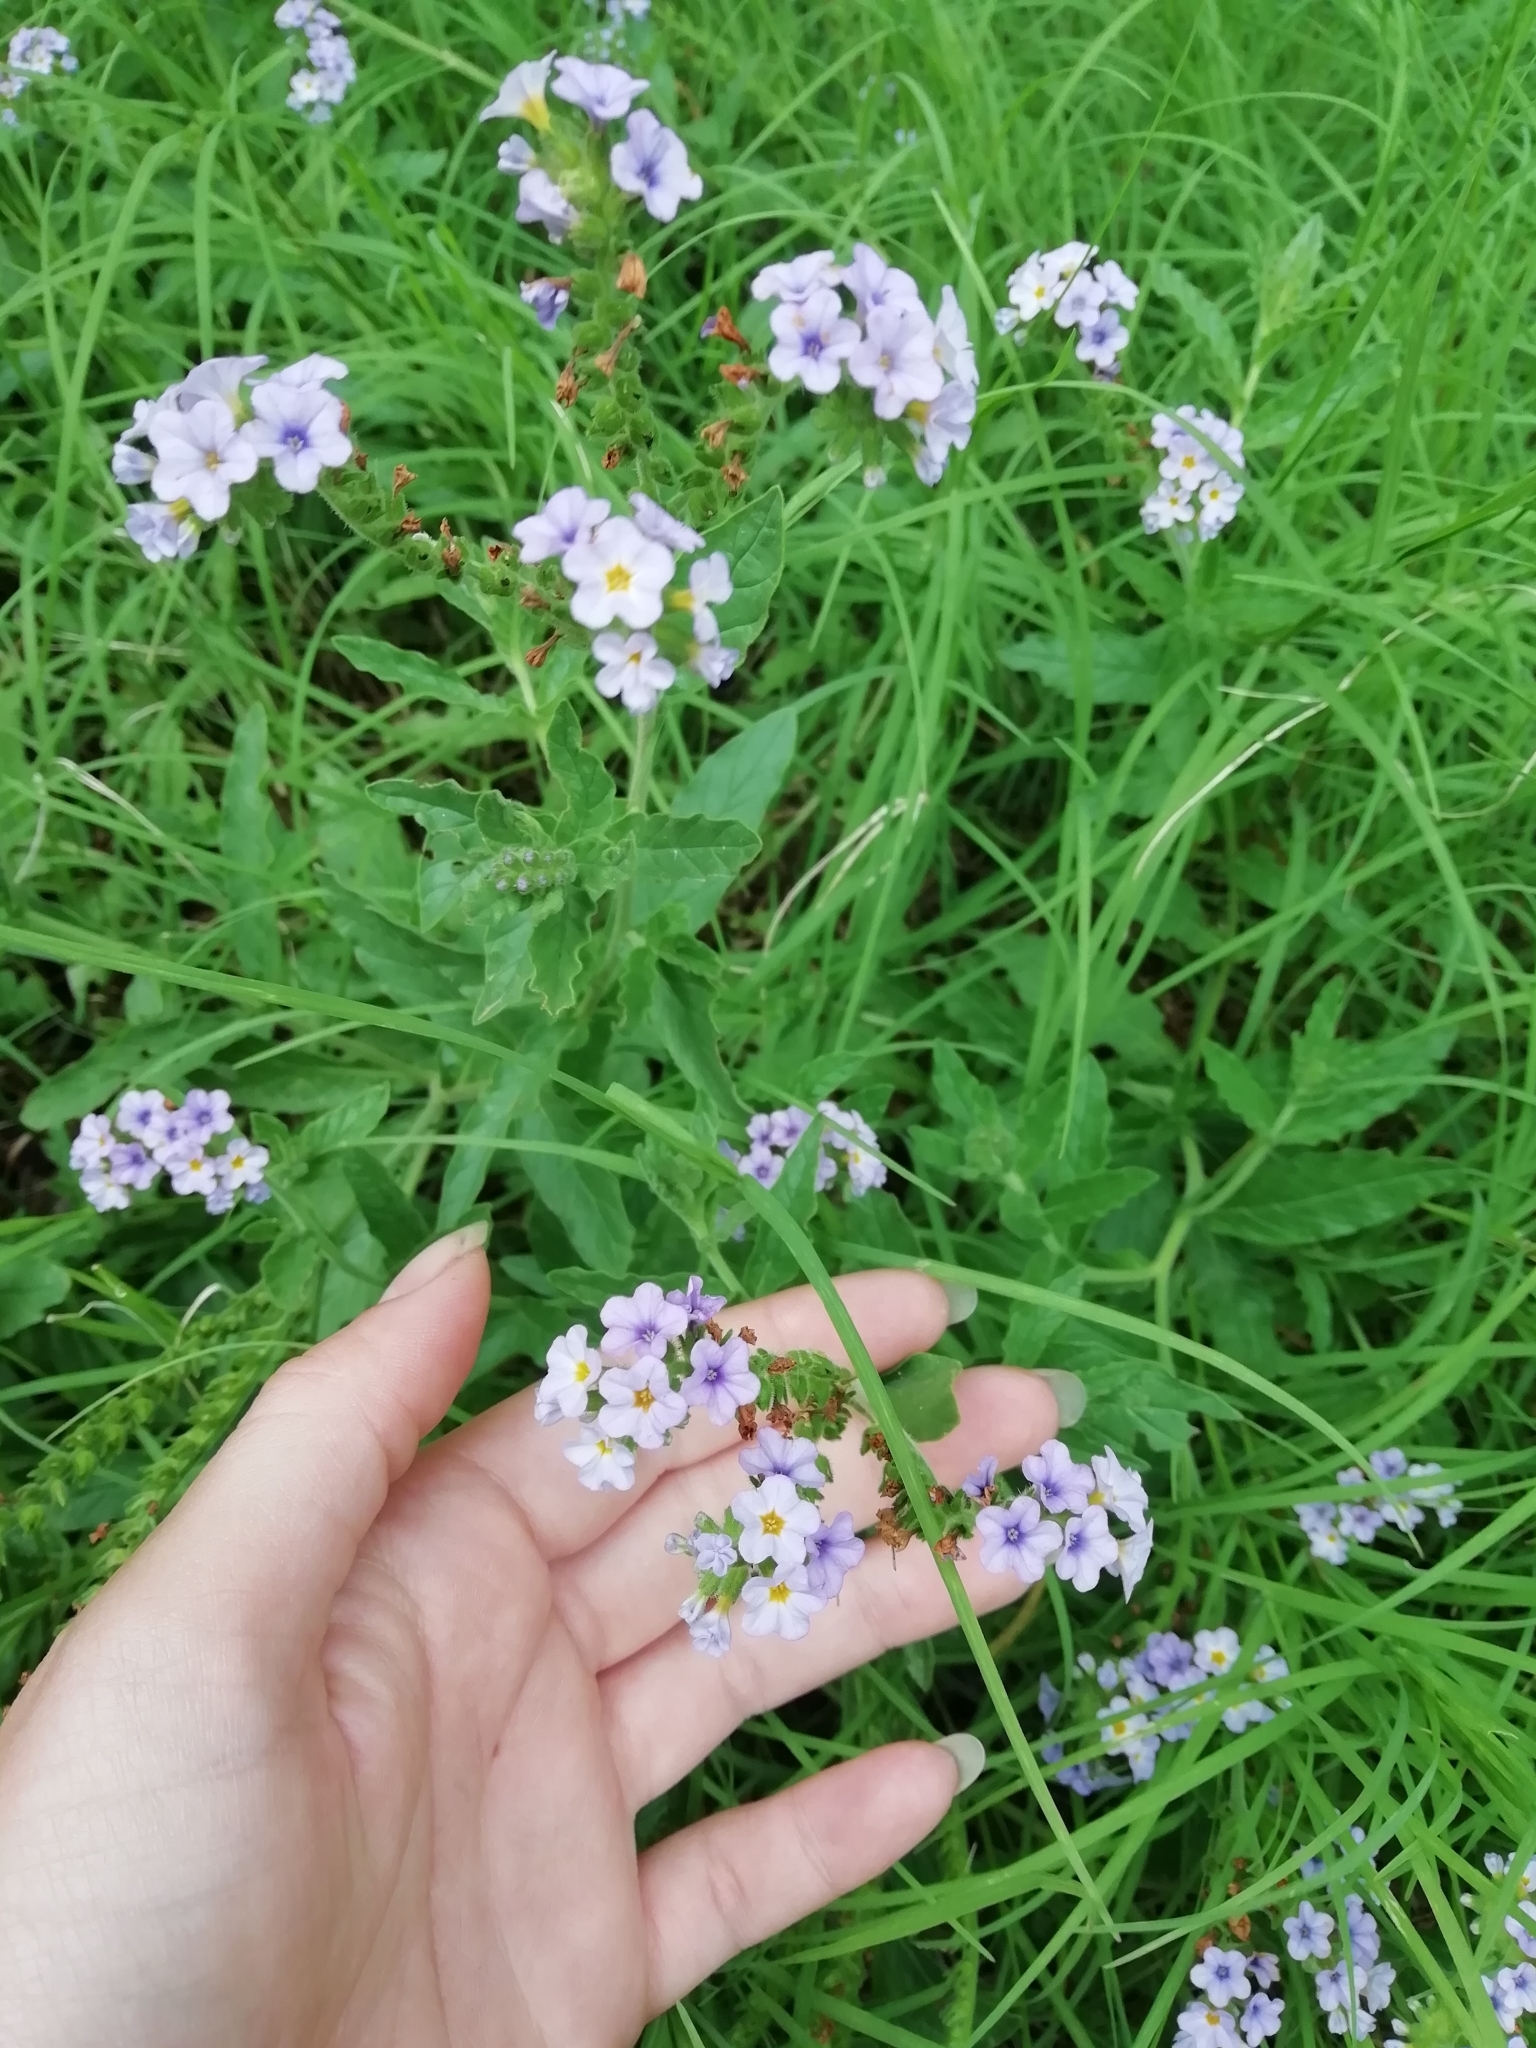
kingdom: Plantae
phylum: Tracheophyta
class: Magnoliopsida
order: Boraginales
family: Heliotropiaceae
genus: Heliotropium
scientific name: Heliotropium amplexicaule
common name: Clasping heliotrope
